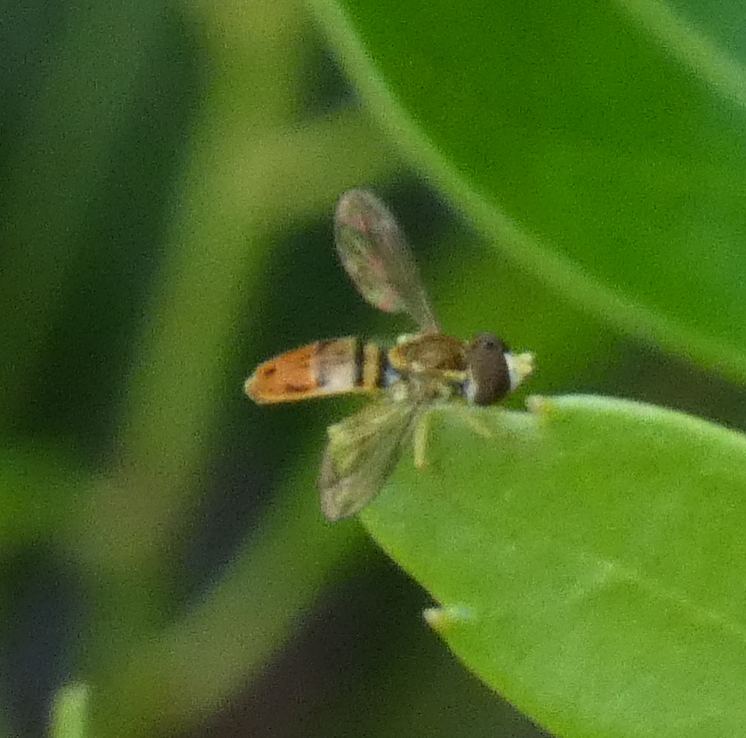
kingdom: Animalia
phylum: Arthropoda
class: Insecta
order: Diptera
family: Syrphidae
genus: Toxomerus
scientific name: Toxomerus marginatus
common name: Syrphid fly
